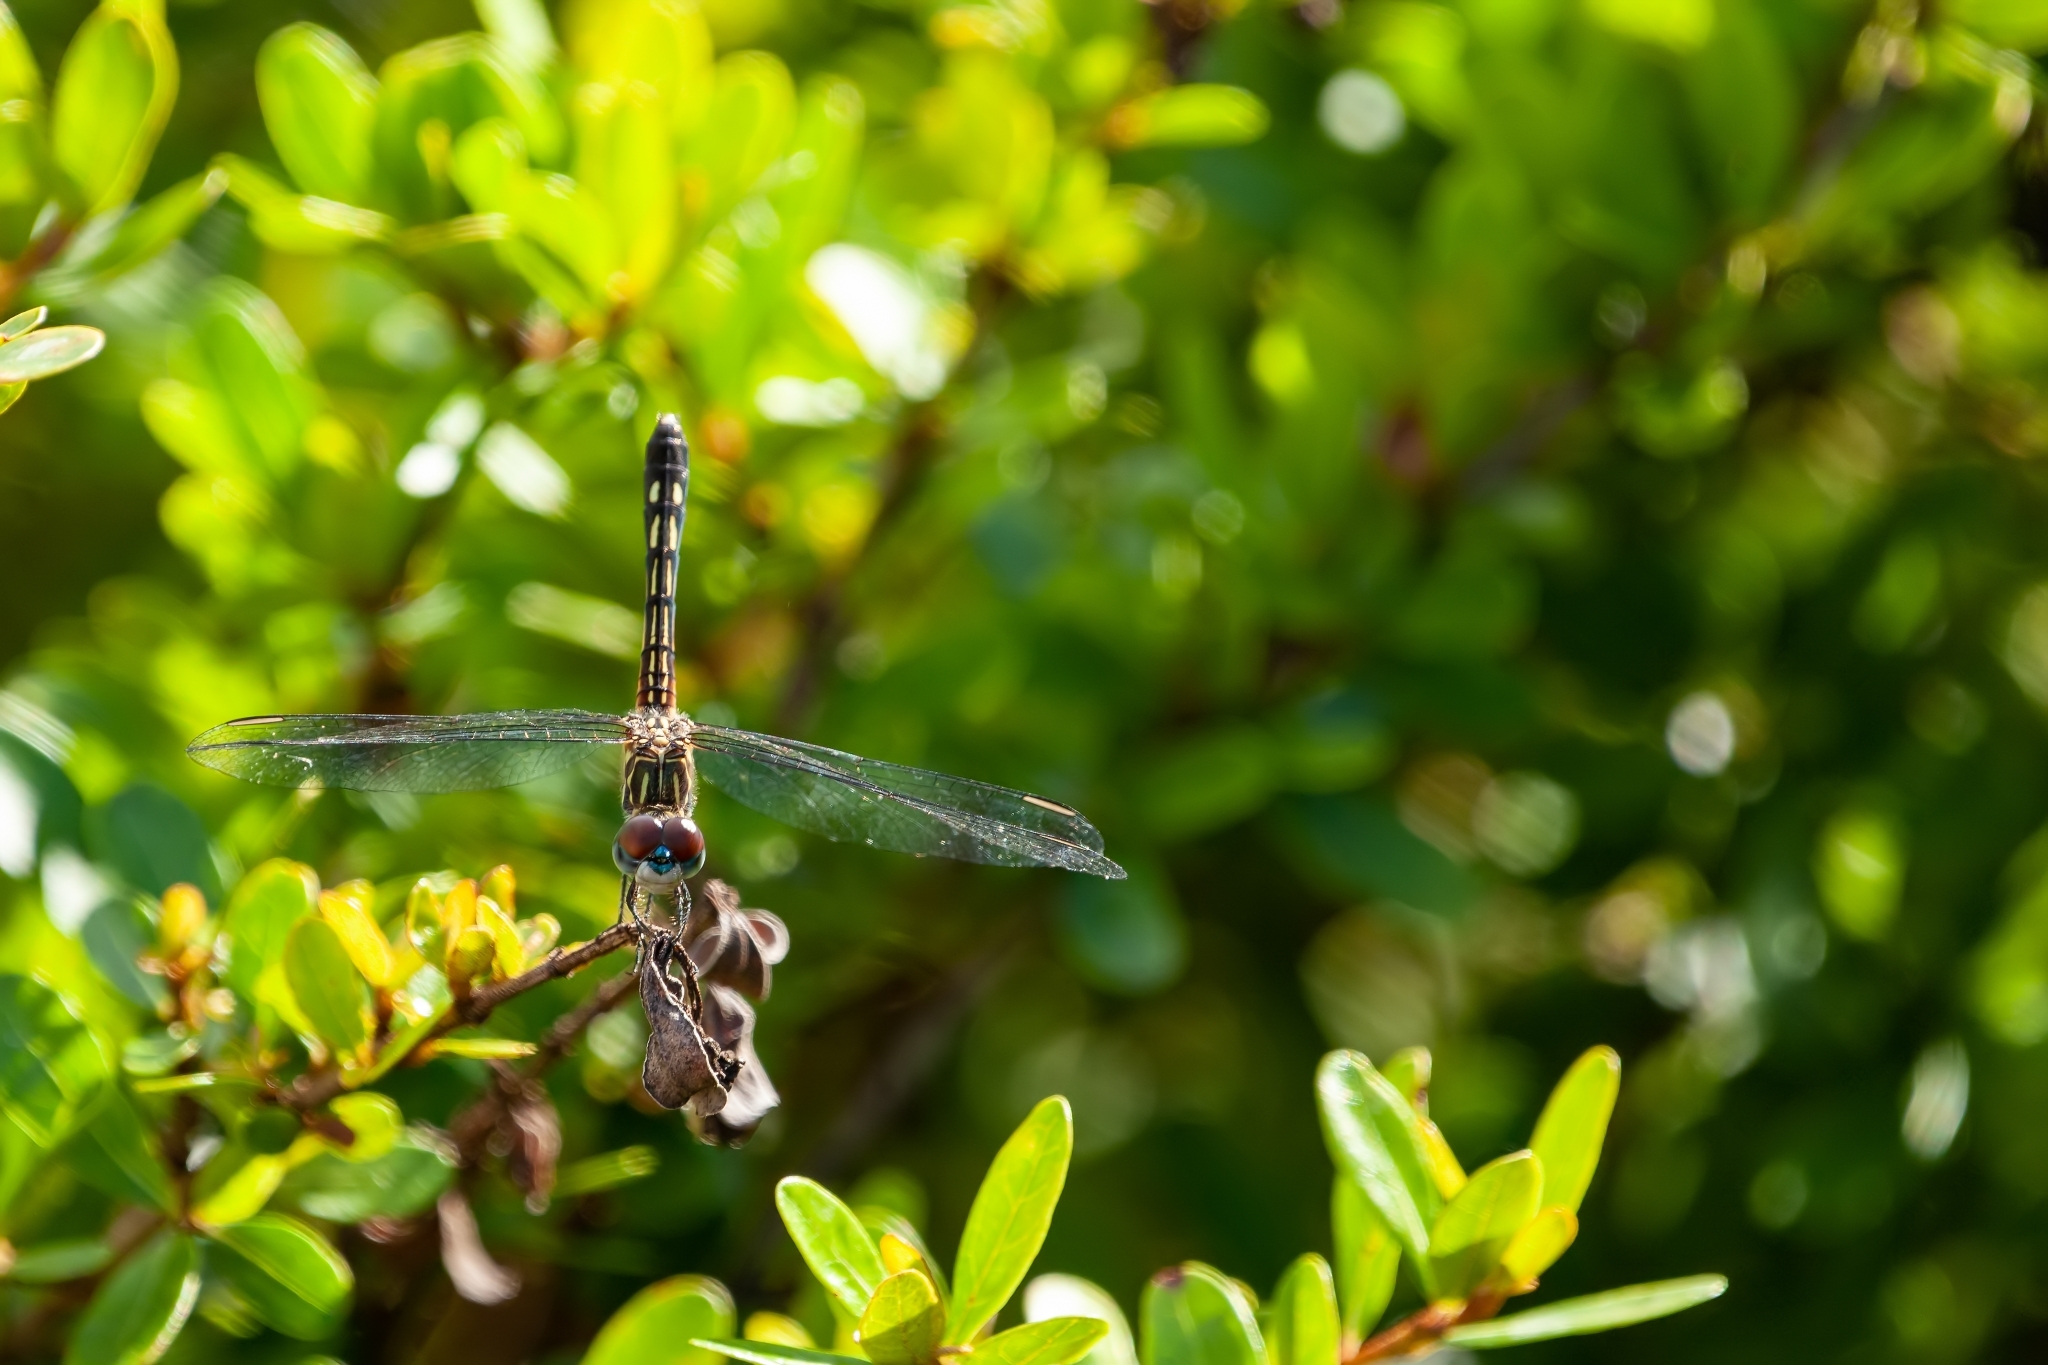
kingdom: Animalia
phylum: Arthropoda
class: Insecta
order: Odonata
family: Libellulidae
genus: Pachydiplax
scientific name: Pachydiplax longipennis
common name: Blue dasher
